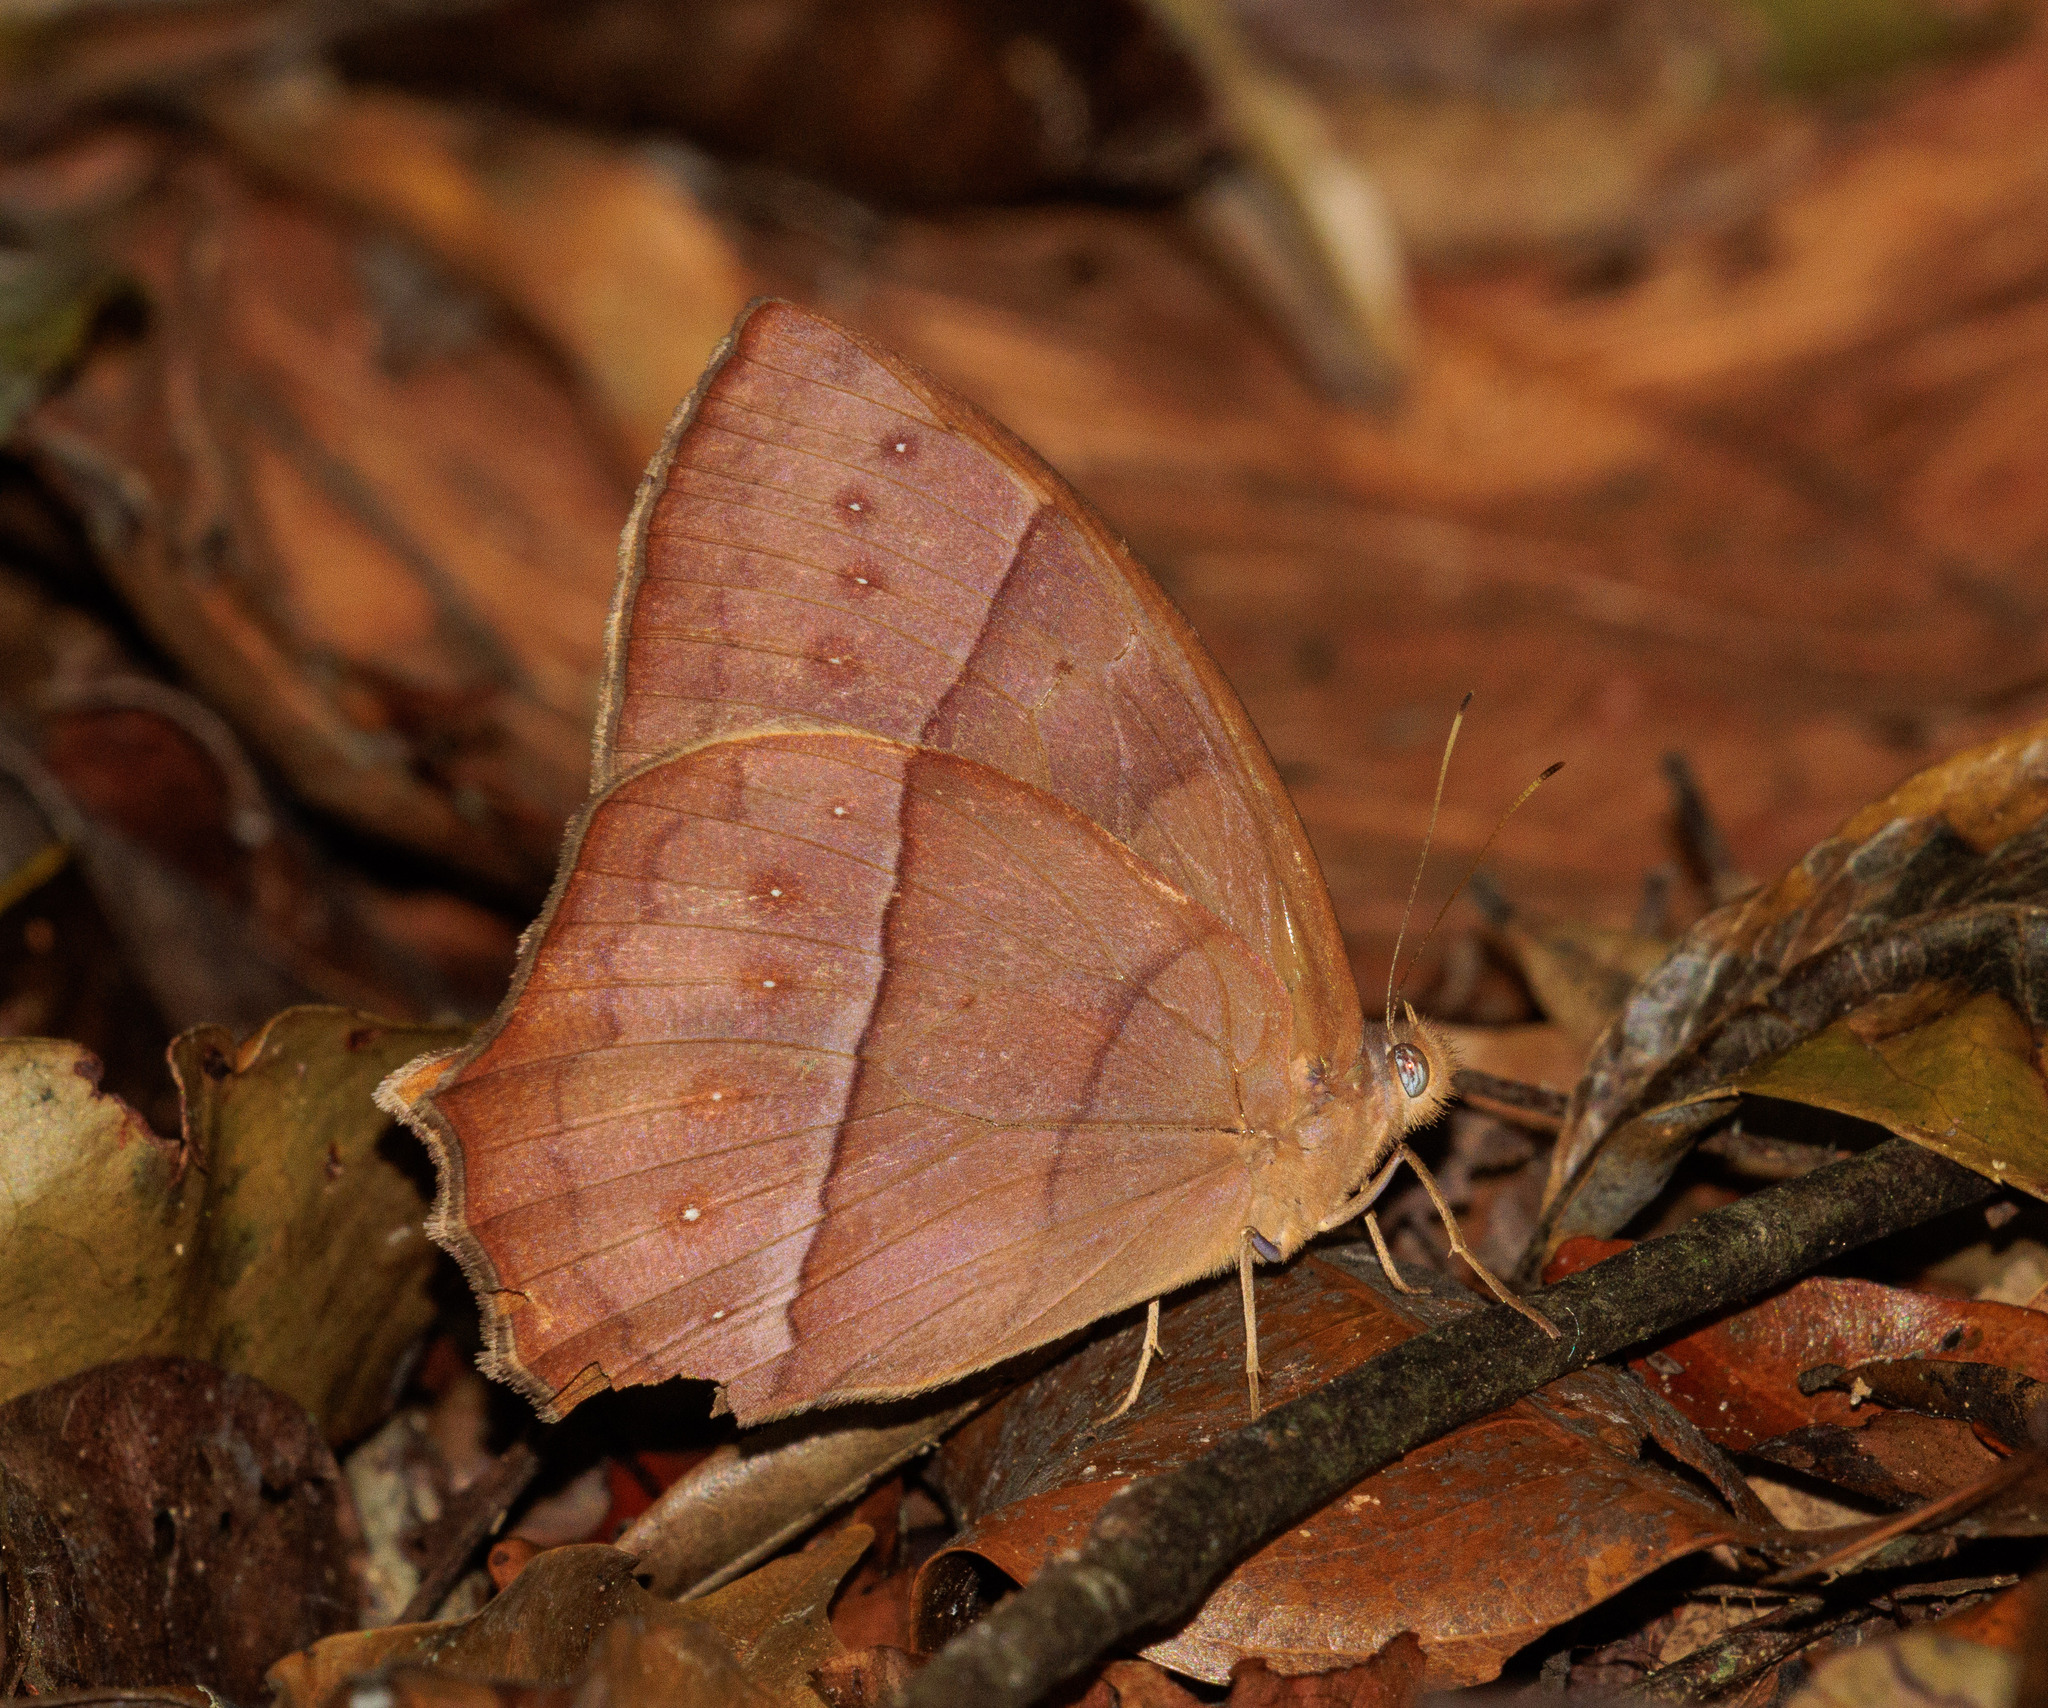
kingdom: Animalia
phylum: Arthropoda
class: Insecta
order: Lepidoptera
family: Nymphalidae
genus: Taygetis
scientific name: Taygetis virgilia
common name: Stub-tailed satyr
